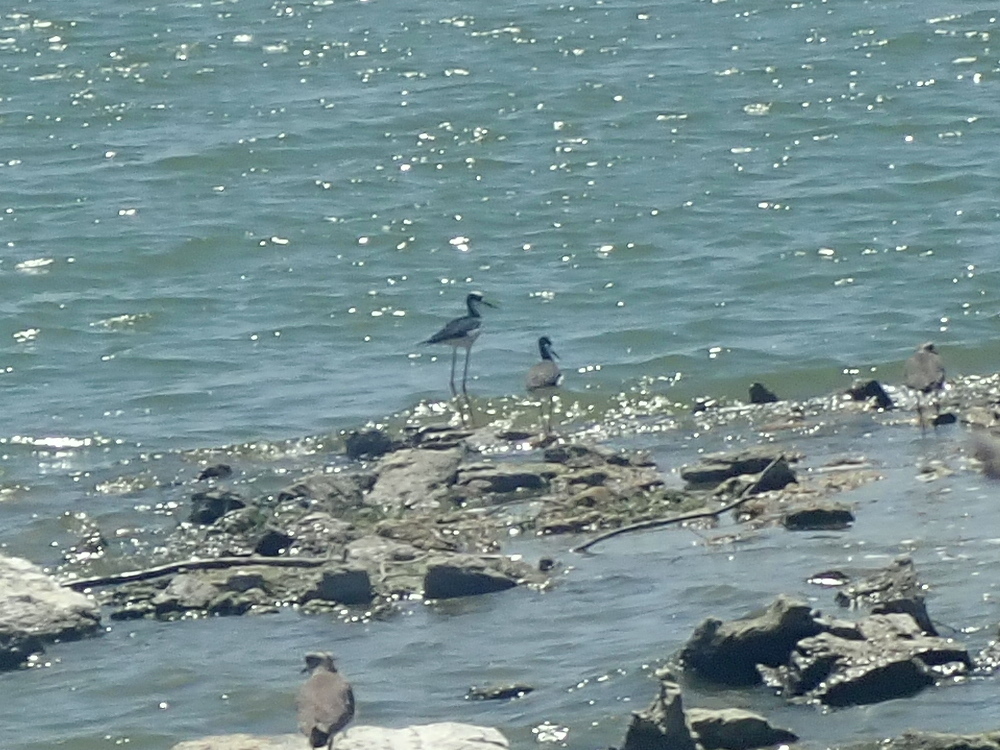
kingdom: Animalia
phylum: Chordata
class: Aves
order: Charadriiformes
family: Recurvirostridae
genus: Himantopus
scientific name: Himantopus mexicanus
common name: Black-necked stilt
